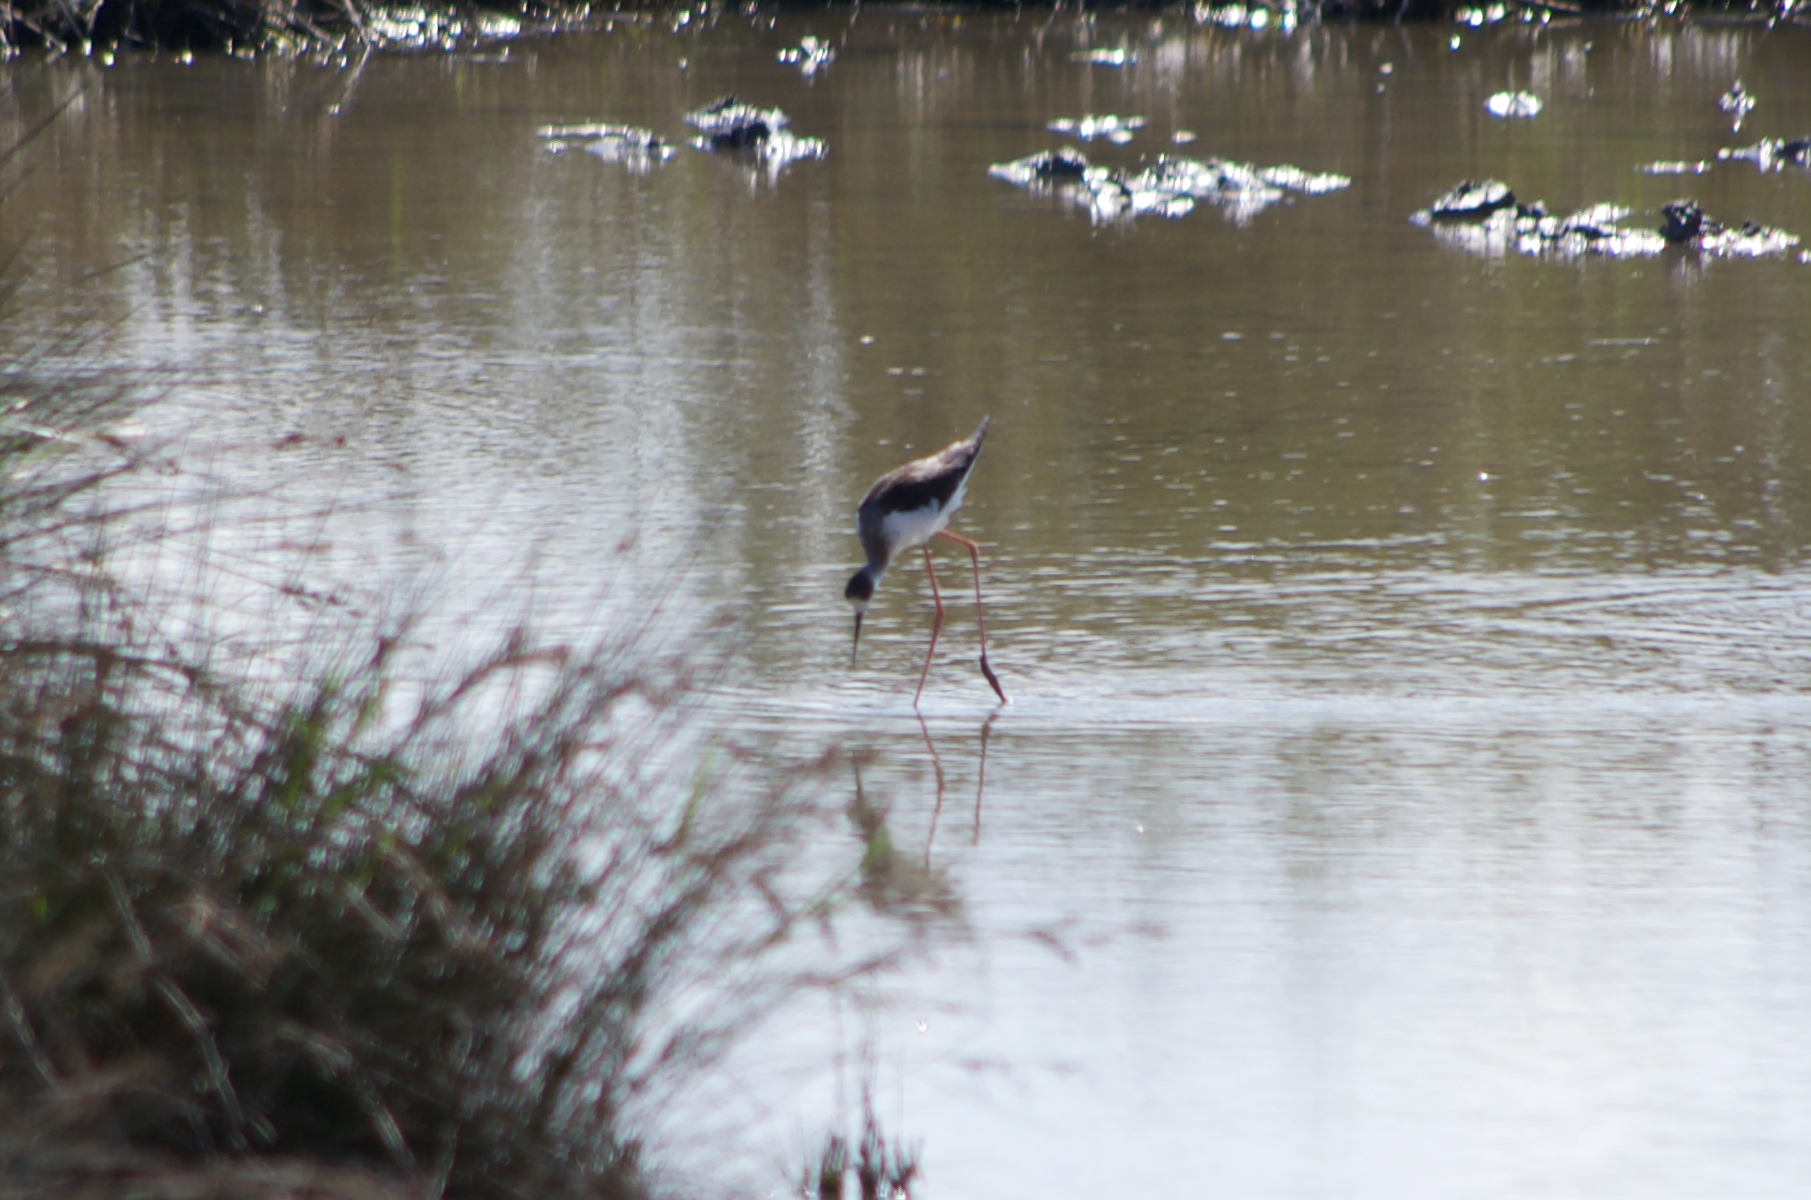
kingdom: Animalia
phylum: Chordata
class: Aves
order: Charadriiformes
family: Recurvirostridae
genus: Himantopus
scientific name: Himantopus himantopus
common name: Black-winged stilt
